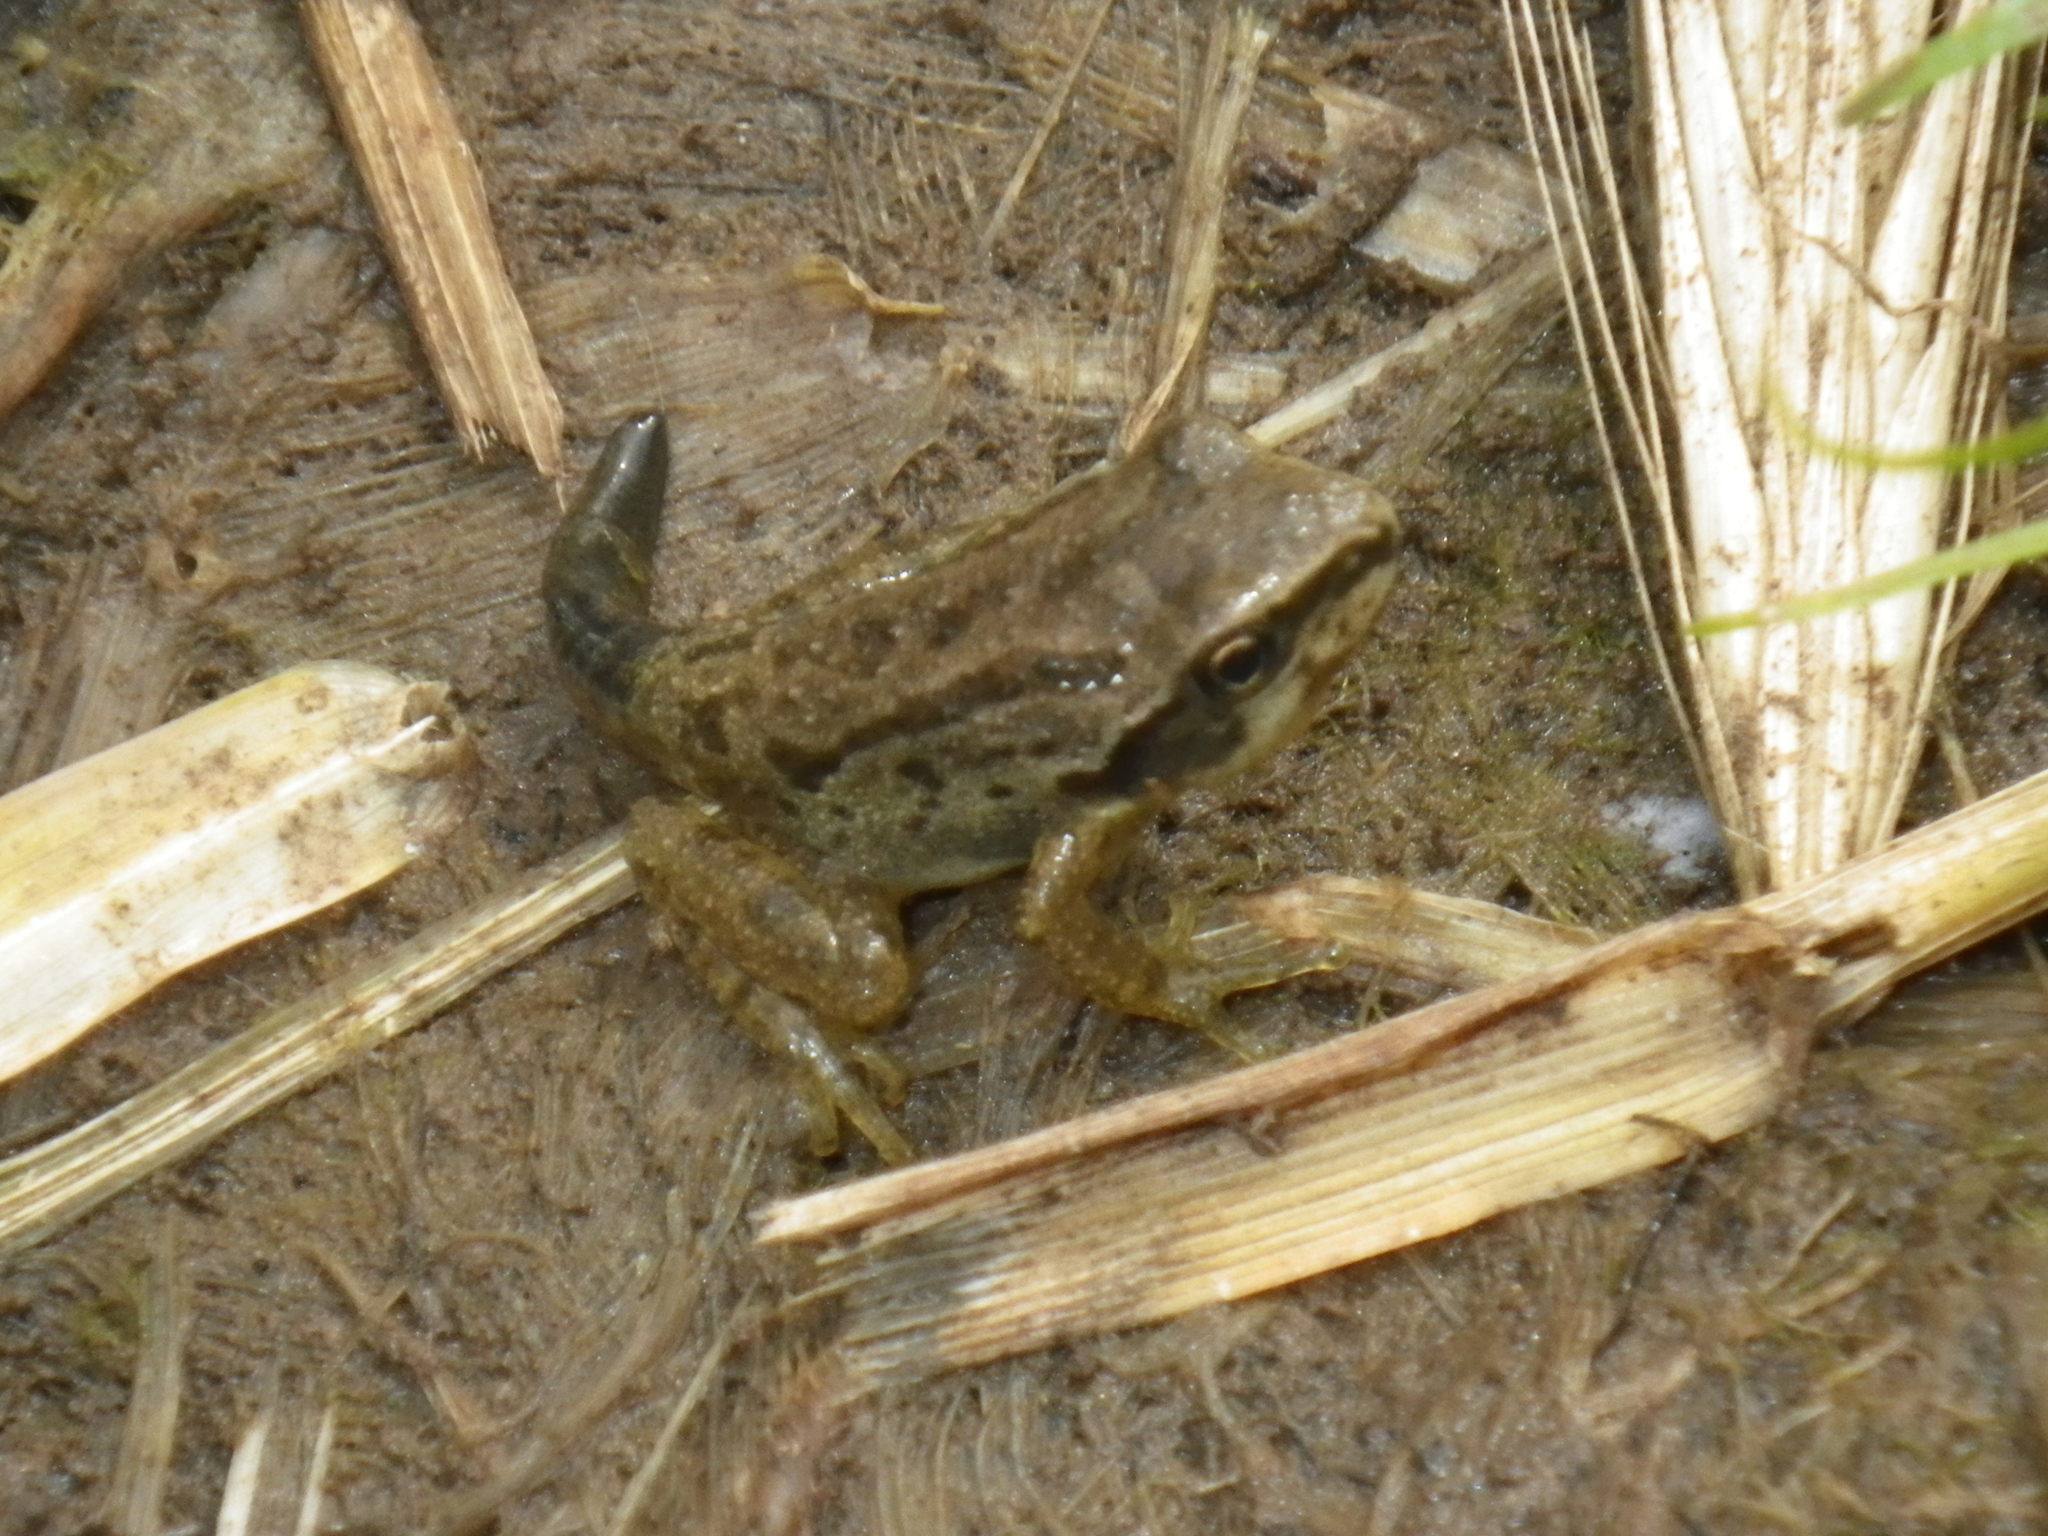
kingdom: Animalia
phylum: Chordata
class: Amphibia
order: Anura
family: Hylidae
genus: Pseudacris
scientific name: Pseudacris regilla
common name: Pacific chorus frog
